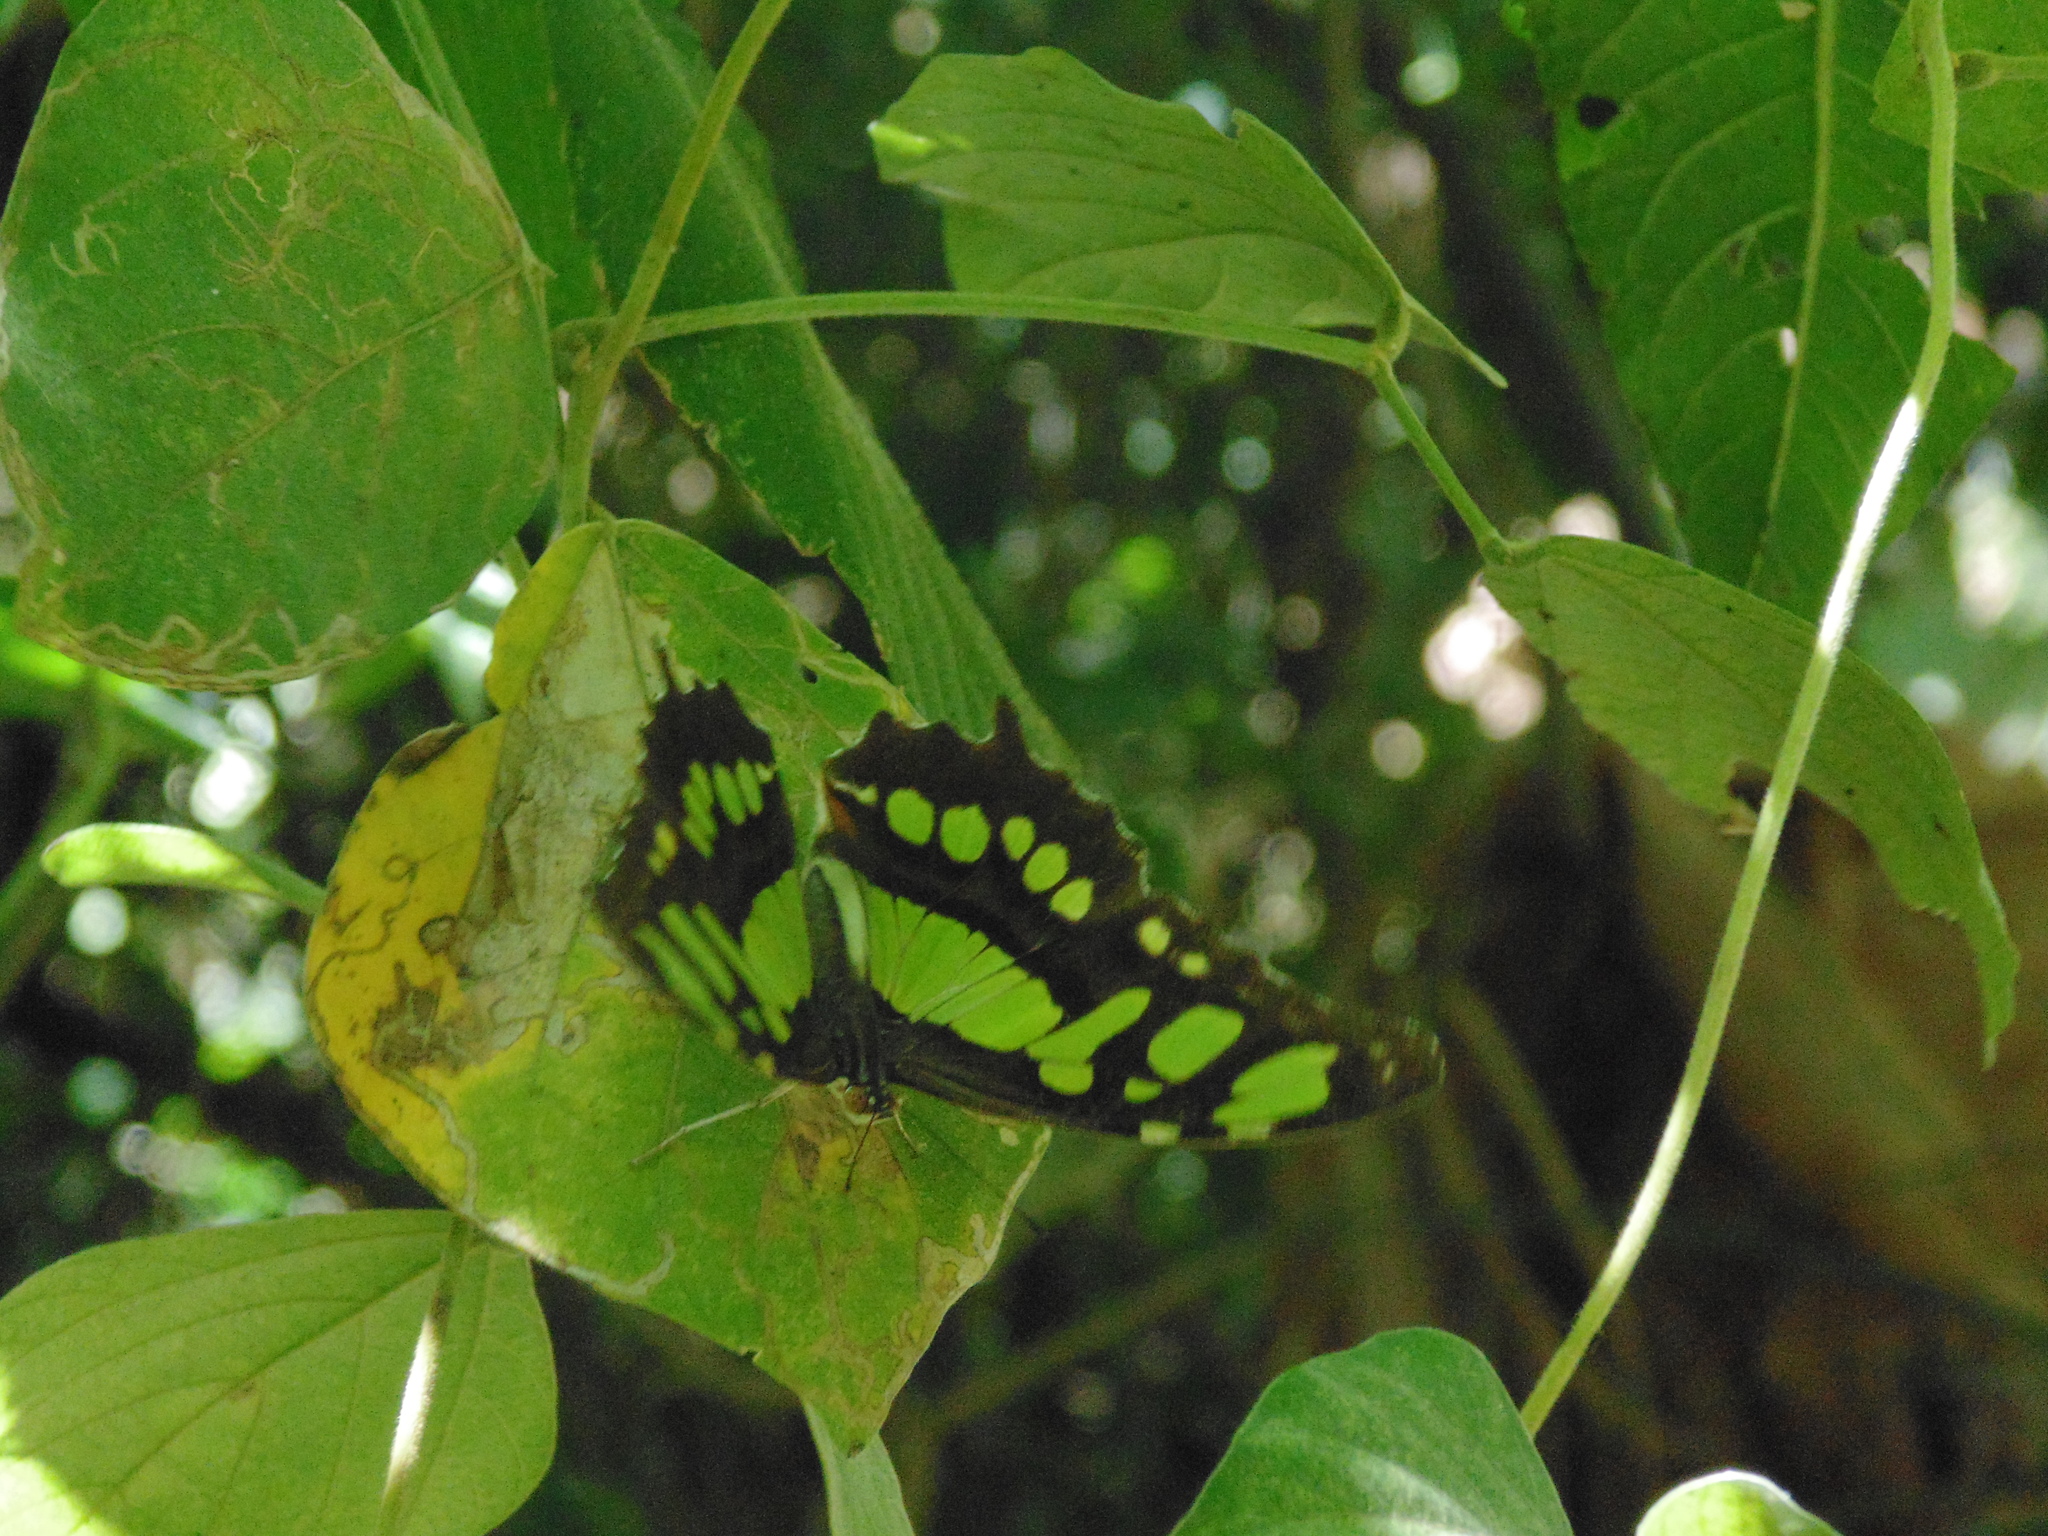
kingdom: Animalia
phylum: Arthropoda
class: Insecta
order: Lepidoptera
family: Nymphalidae
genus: Siproeta
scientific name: Siproeta stelenes
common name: Malachite
